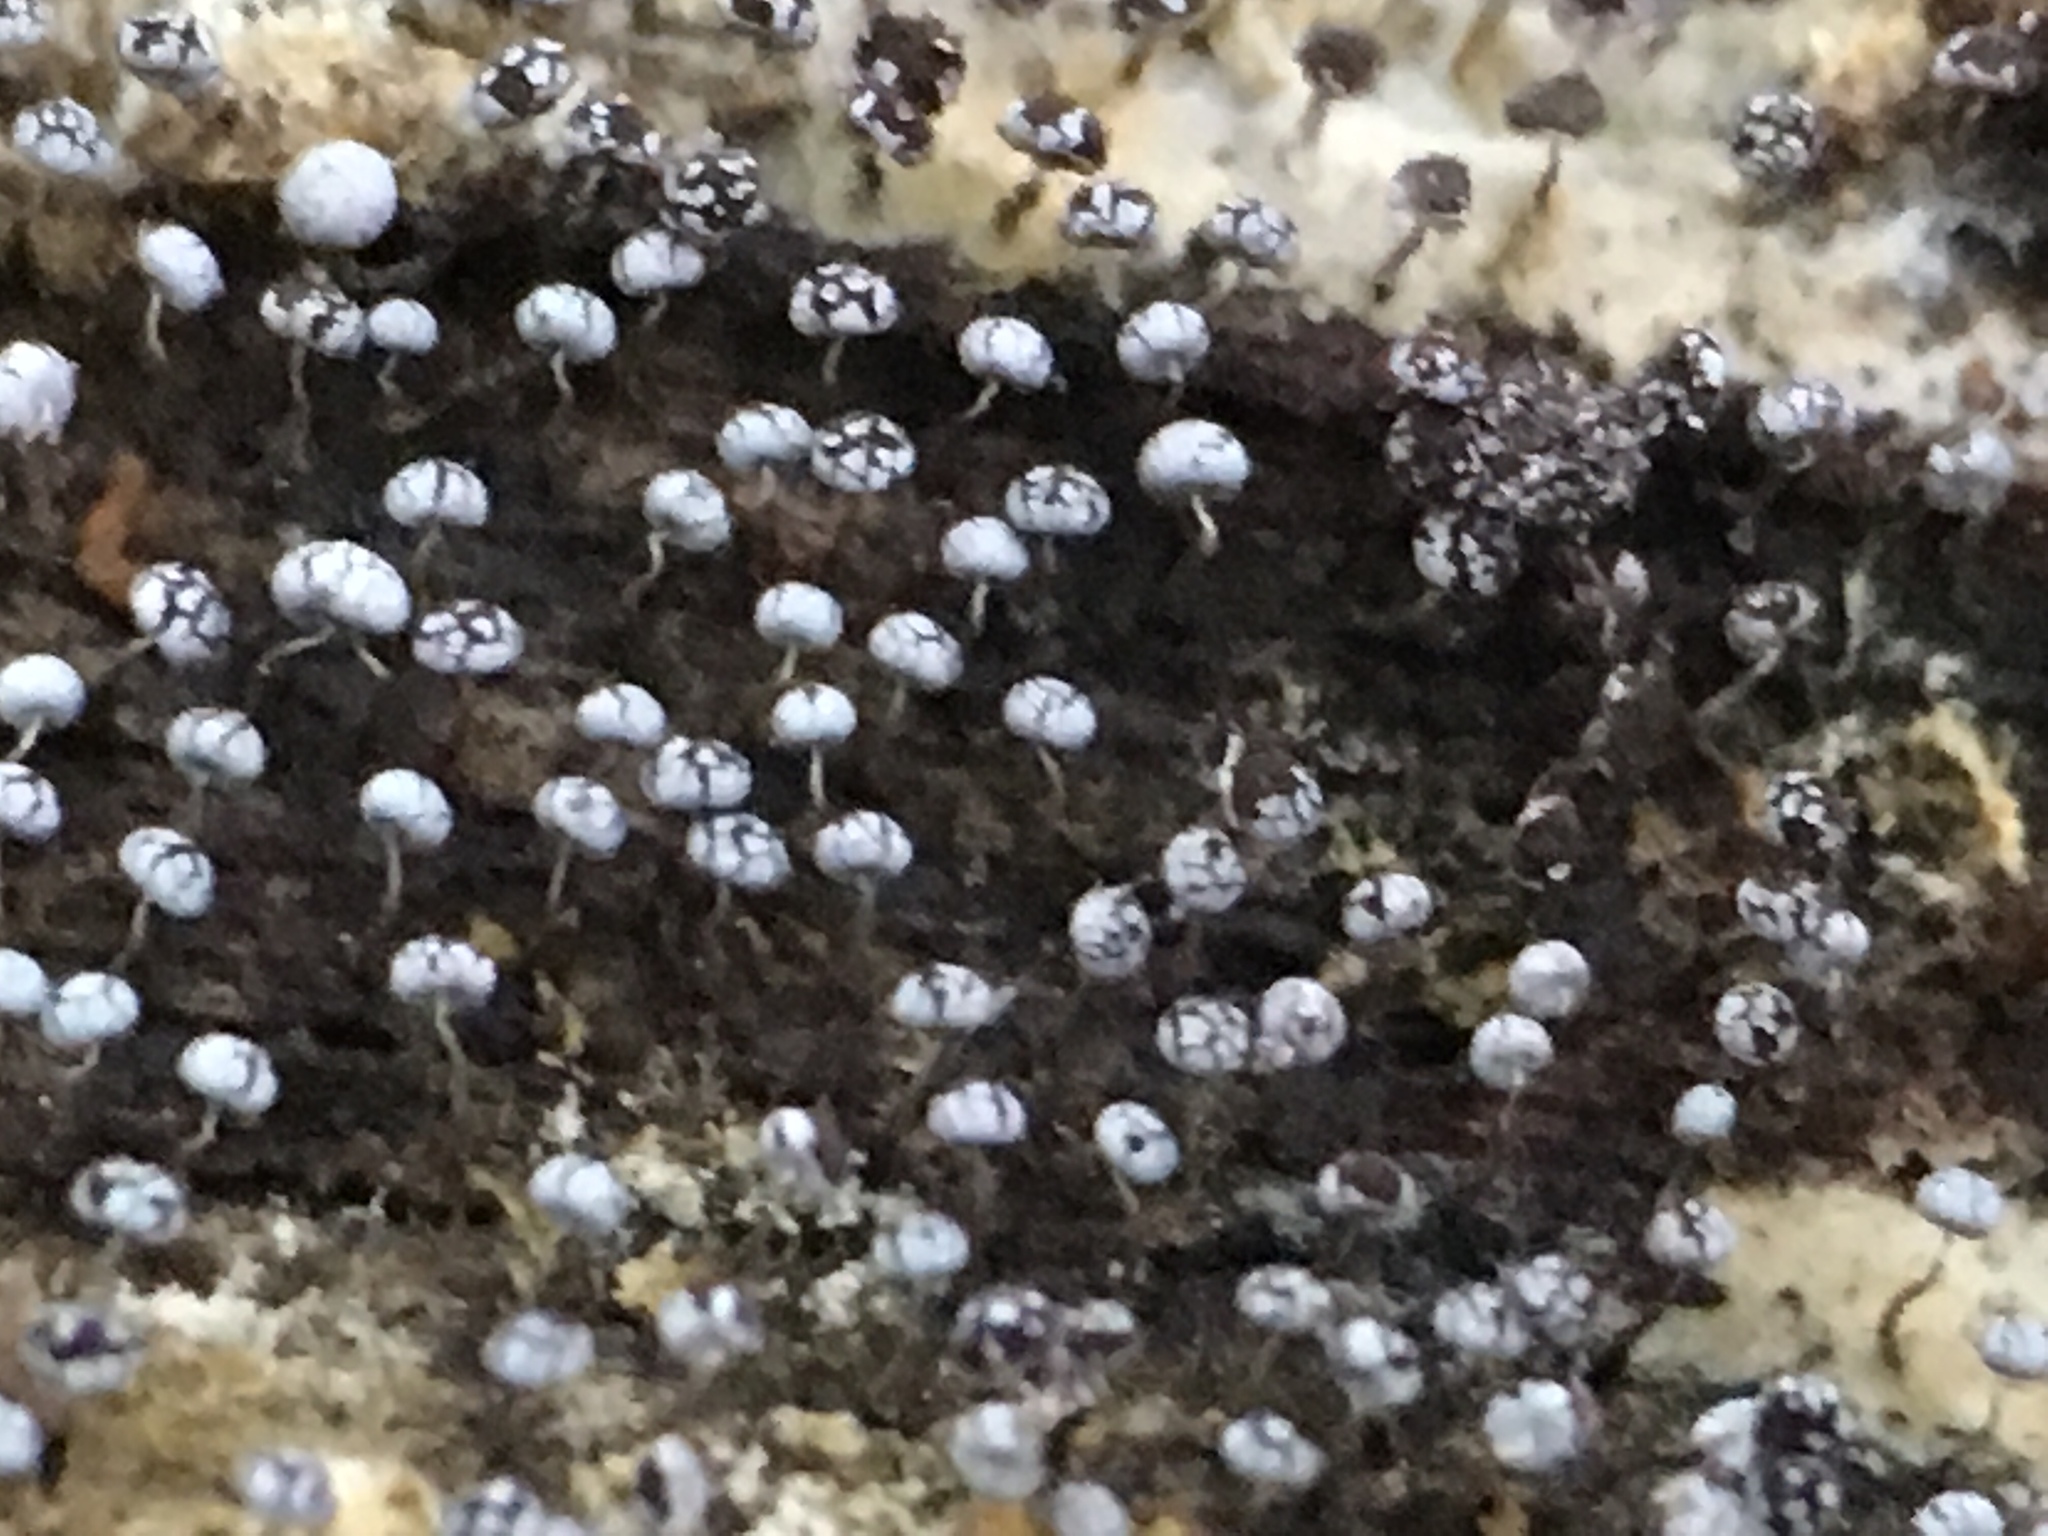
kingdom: Protozoa
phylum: Mycetozoa
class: Myxomycetes
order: Physarales
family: Physaraceae
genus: Physarum
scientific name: Physarum album
